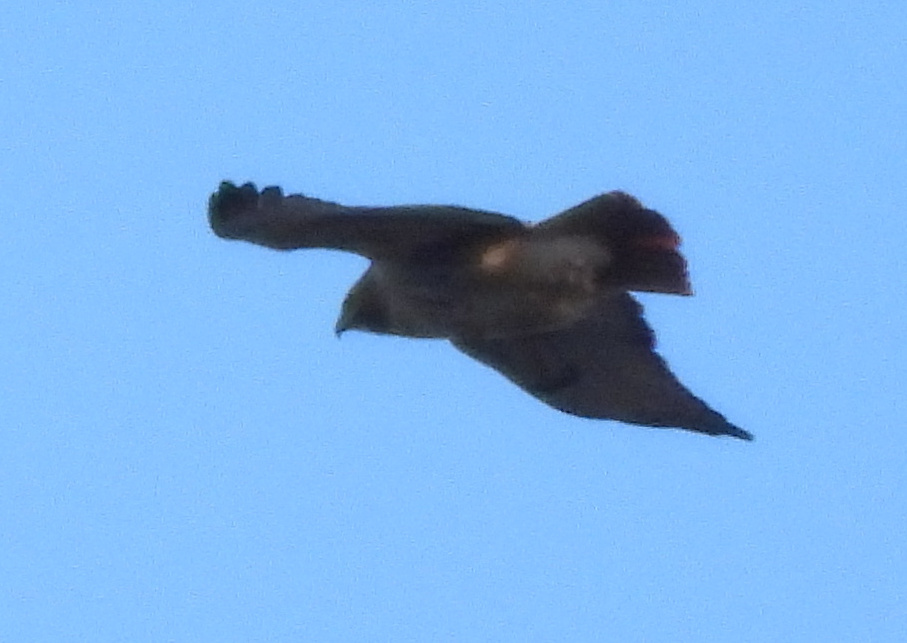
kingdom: Animalia
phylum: Chordata
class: Aves
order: Accipitriformes
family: Accipitridae
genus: Buteo
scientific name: Buteo jamaicensis
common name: Red-tailed hawk
